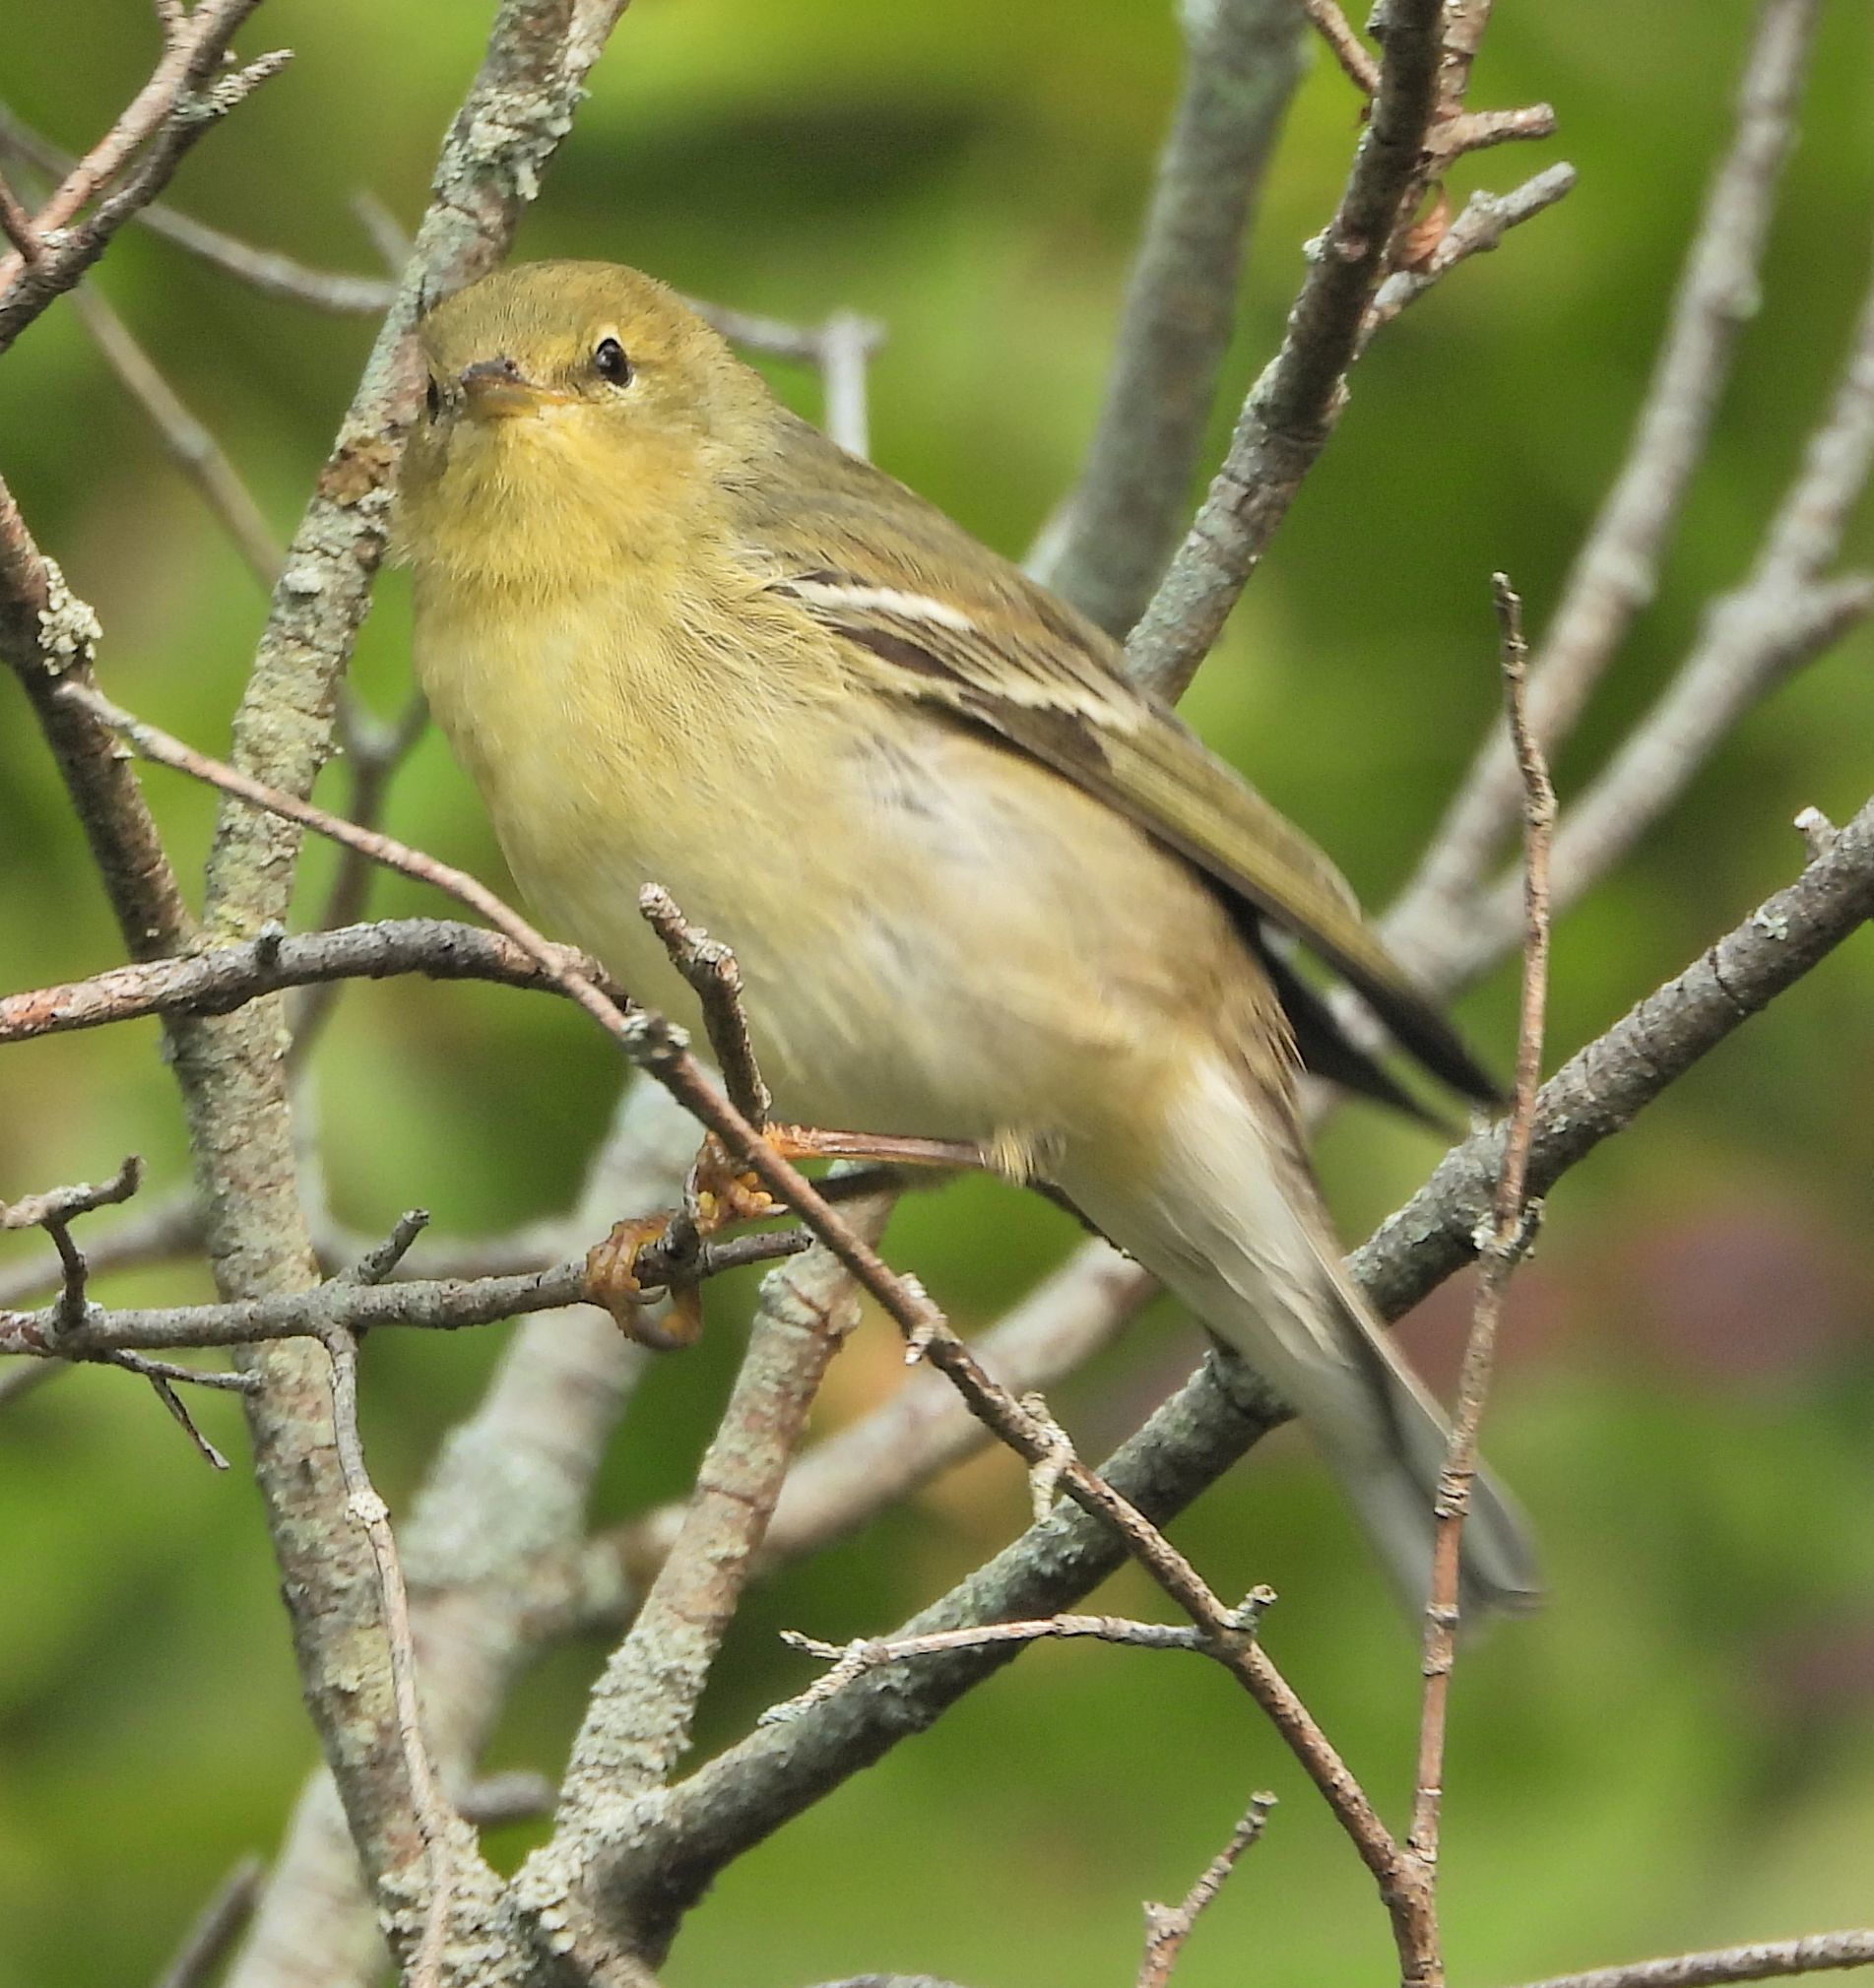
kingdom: Animalia
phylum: Chordata
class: Aves
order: Passeriformes
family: Parulidae
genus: Setophaga
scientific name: Setophaga striata
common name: Blackpoll warbler
